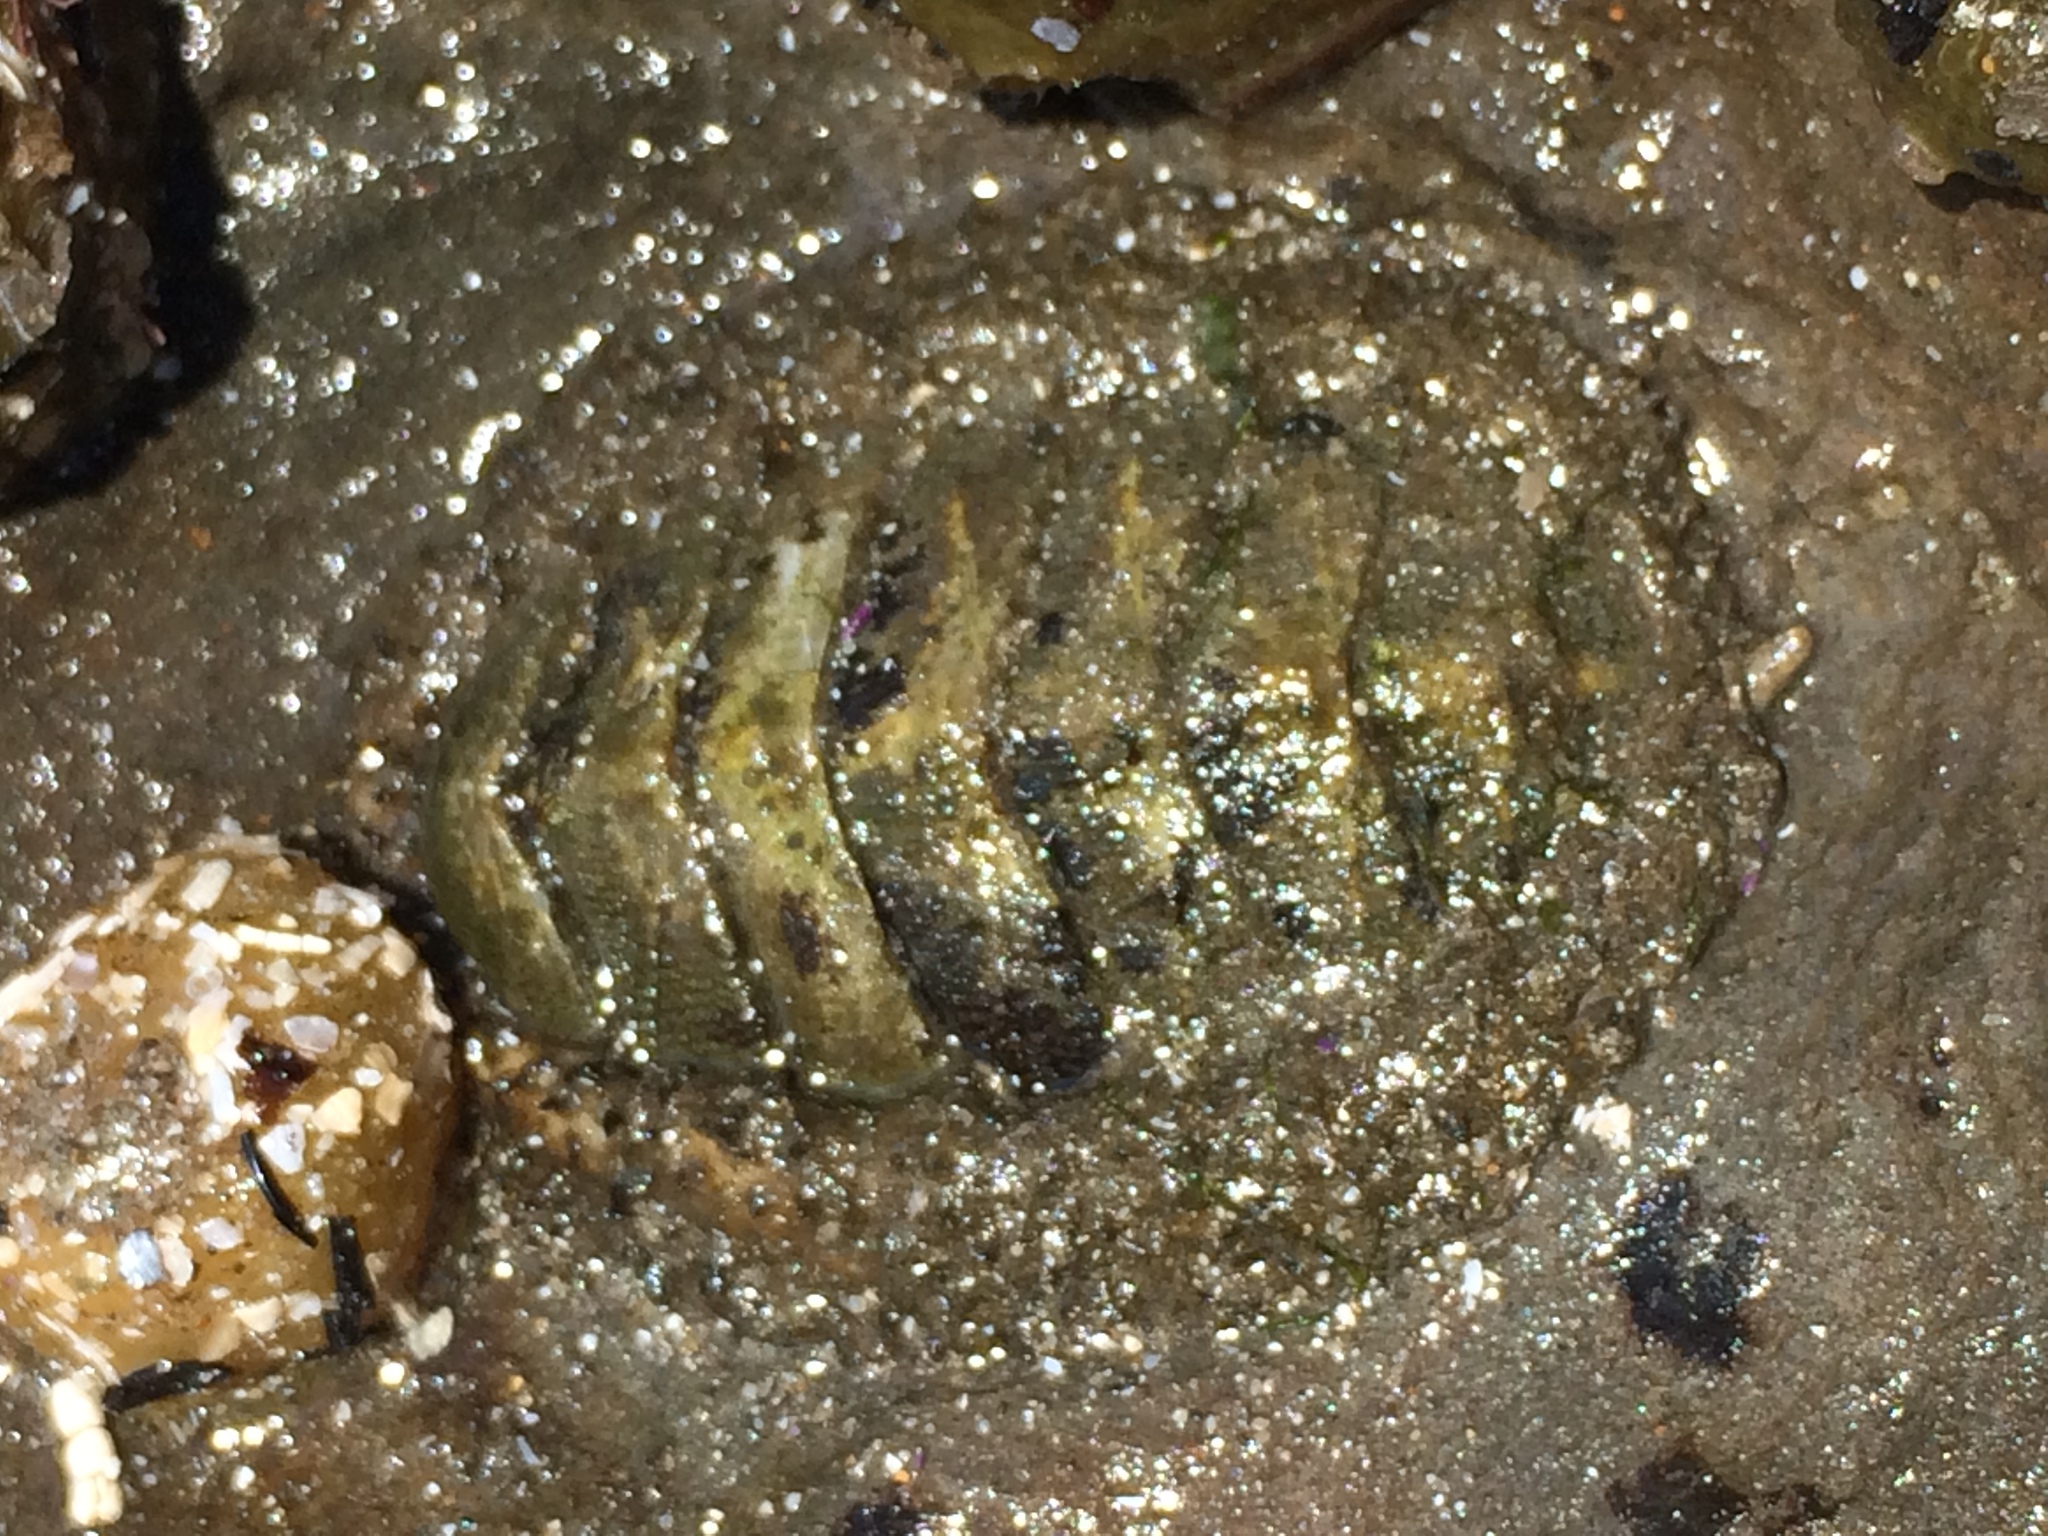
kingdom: Animalia
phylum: Mollusca
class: Polyplacophora
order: Chitonida
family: Mopaliidae
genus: Mopalia
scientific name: Mopalia hindsii
